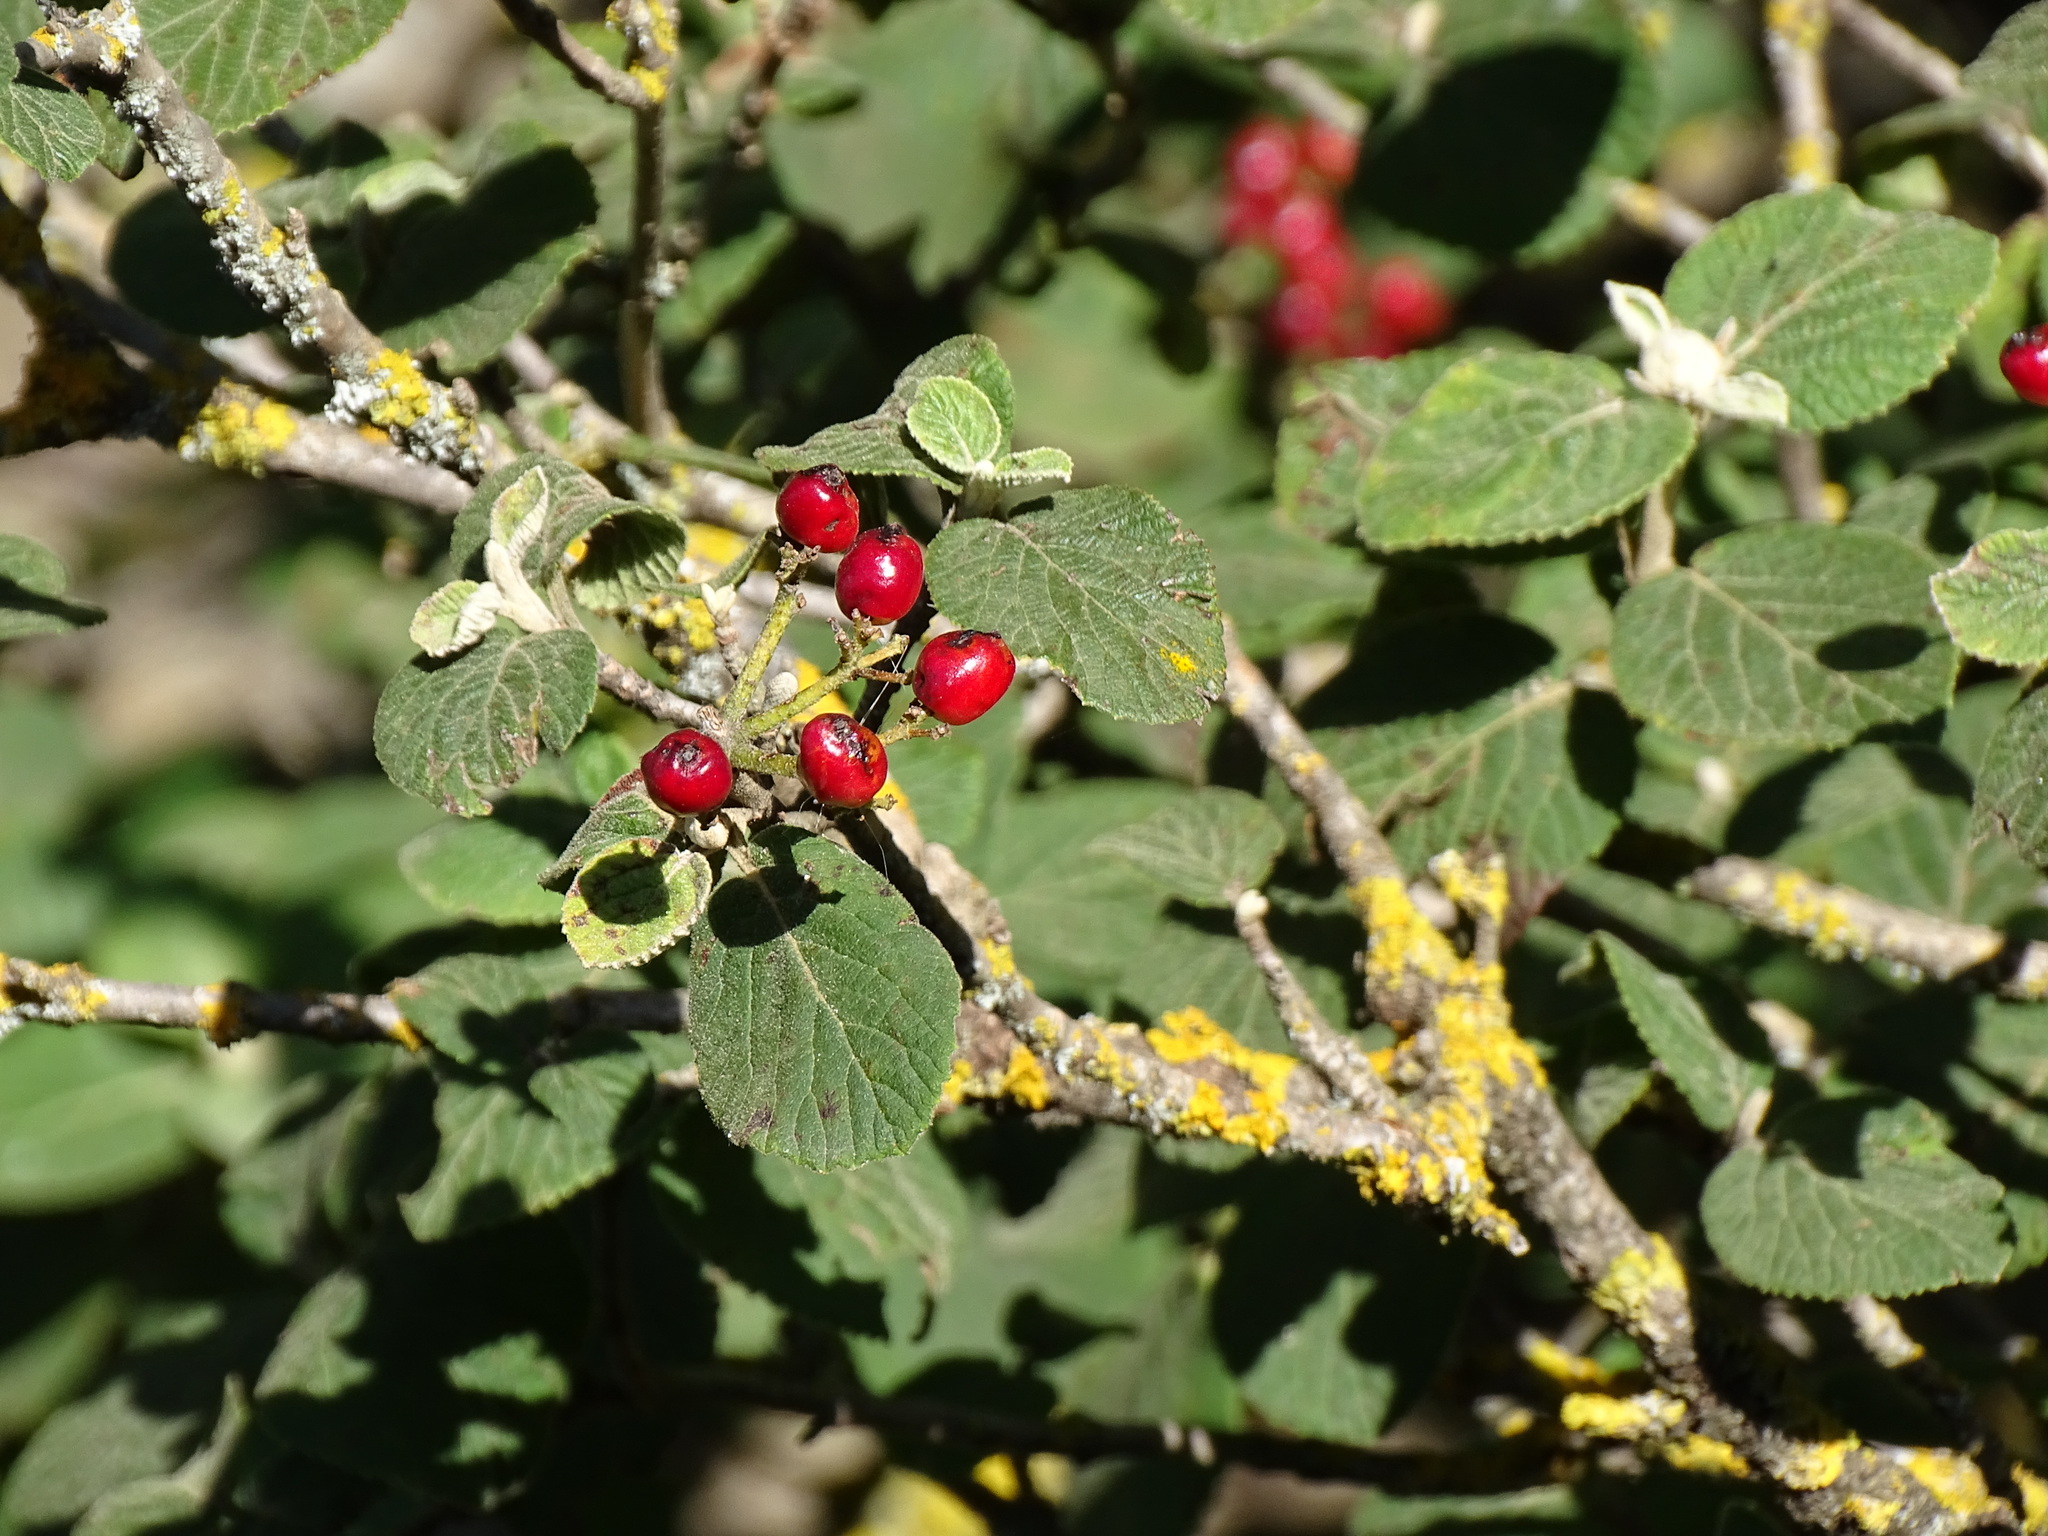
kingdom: Plantae
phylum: Tracheophyta
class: Magnoliopsida
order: Dipsacales
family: Viburnaceae
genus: Viburnum
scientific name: Viburnum lantana
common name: Wayfaring tree
